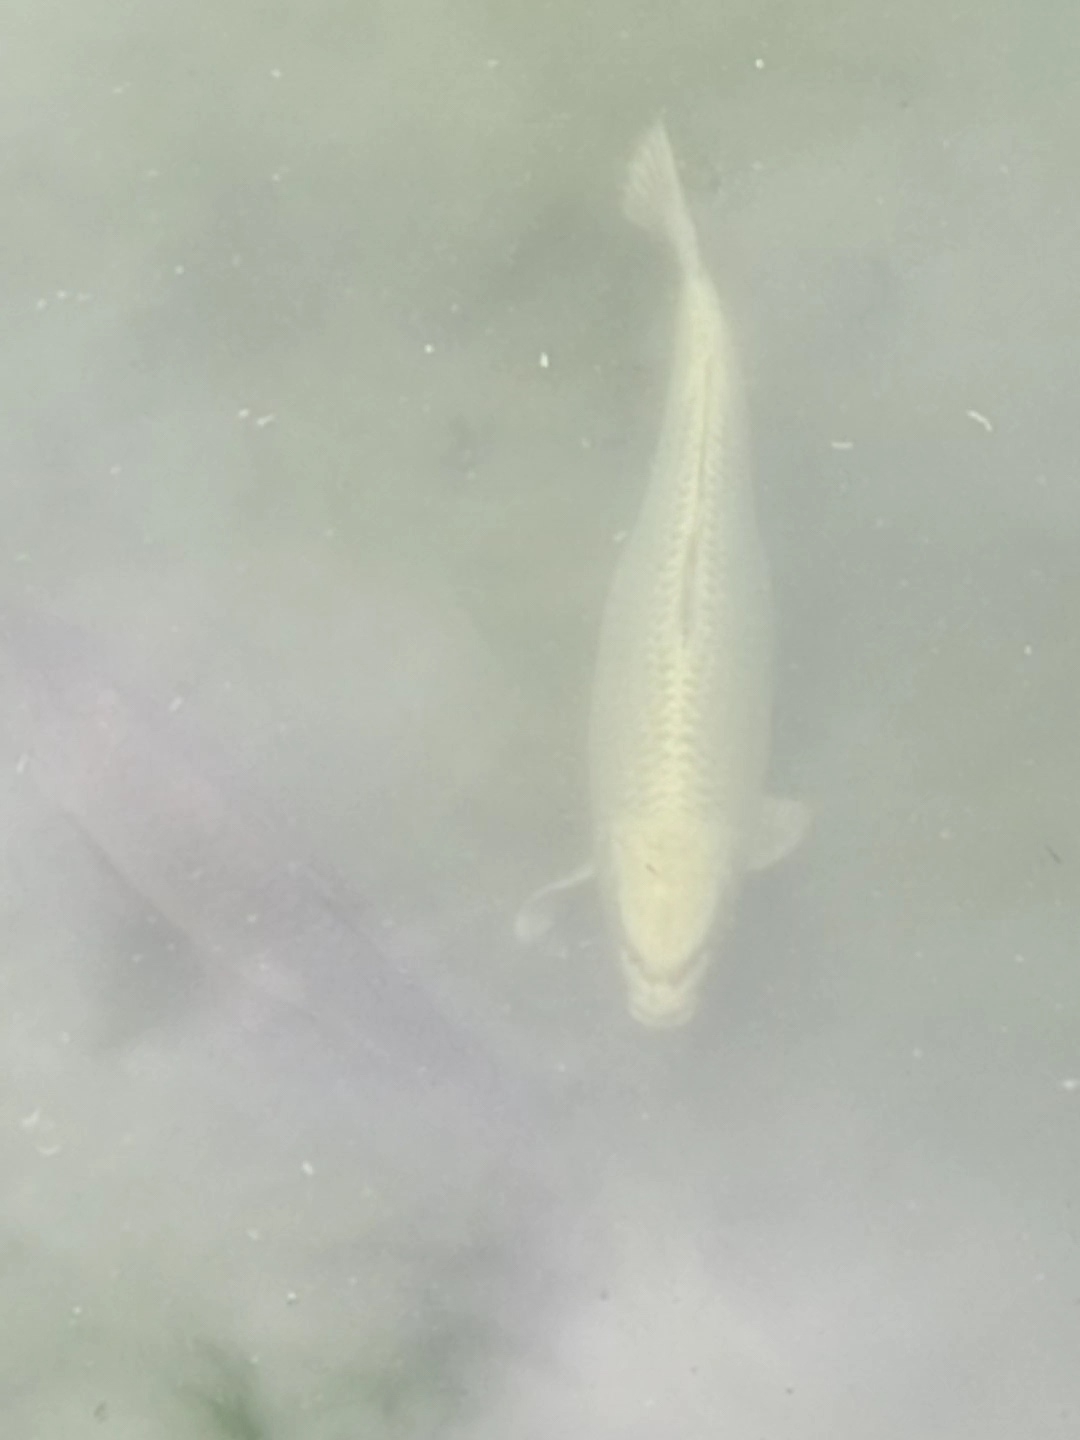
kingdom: Animalia
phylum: Chordata
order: Cypriniformes
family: Cyprinidae
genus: Cyprinus
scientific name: Cyprinus rubrofuscus
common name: Koi
